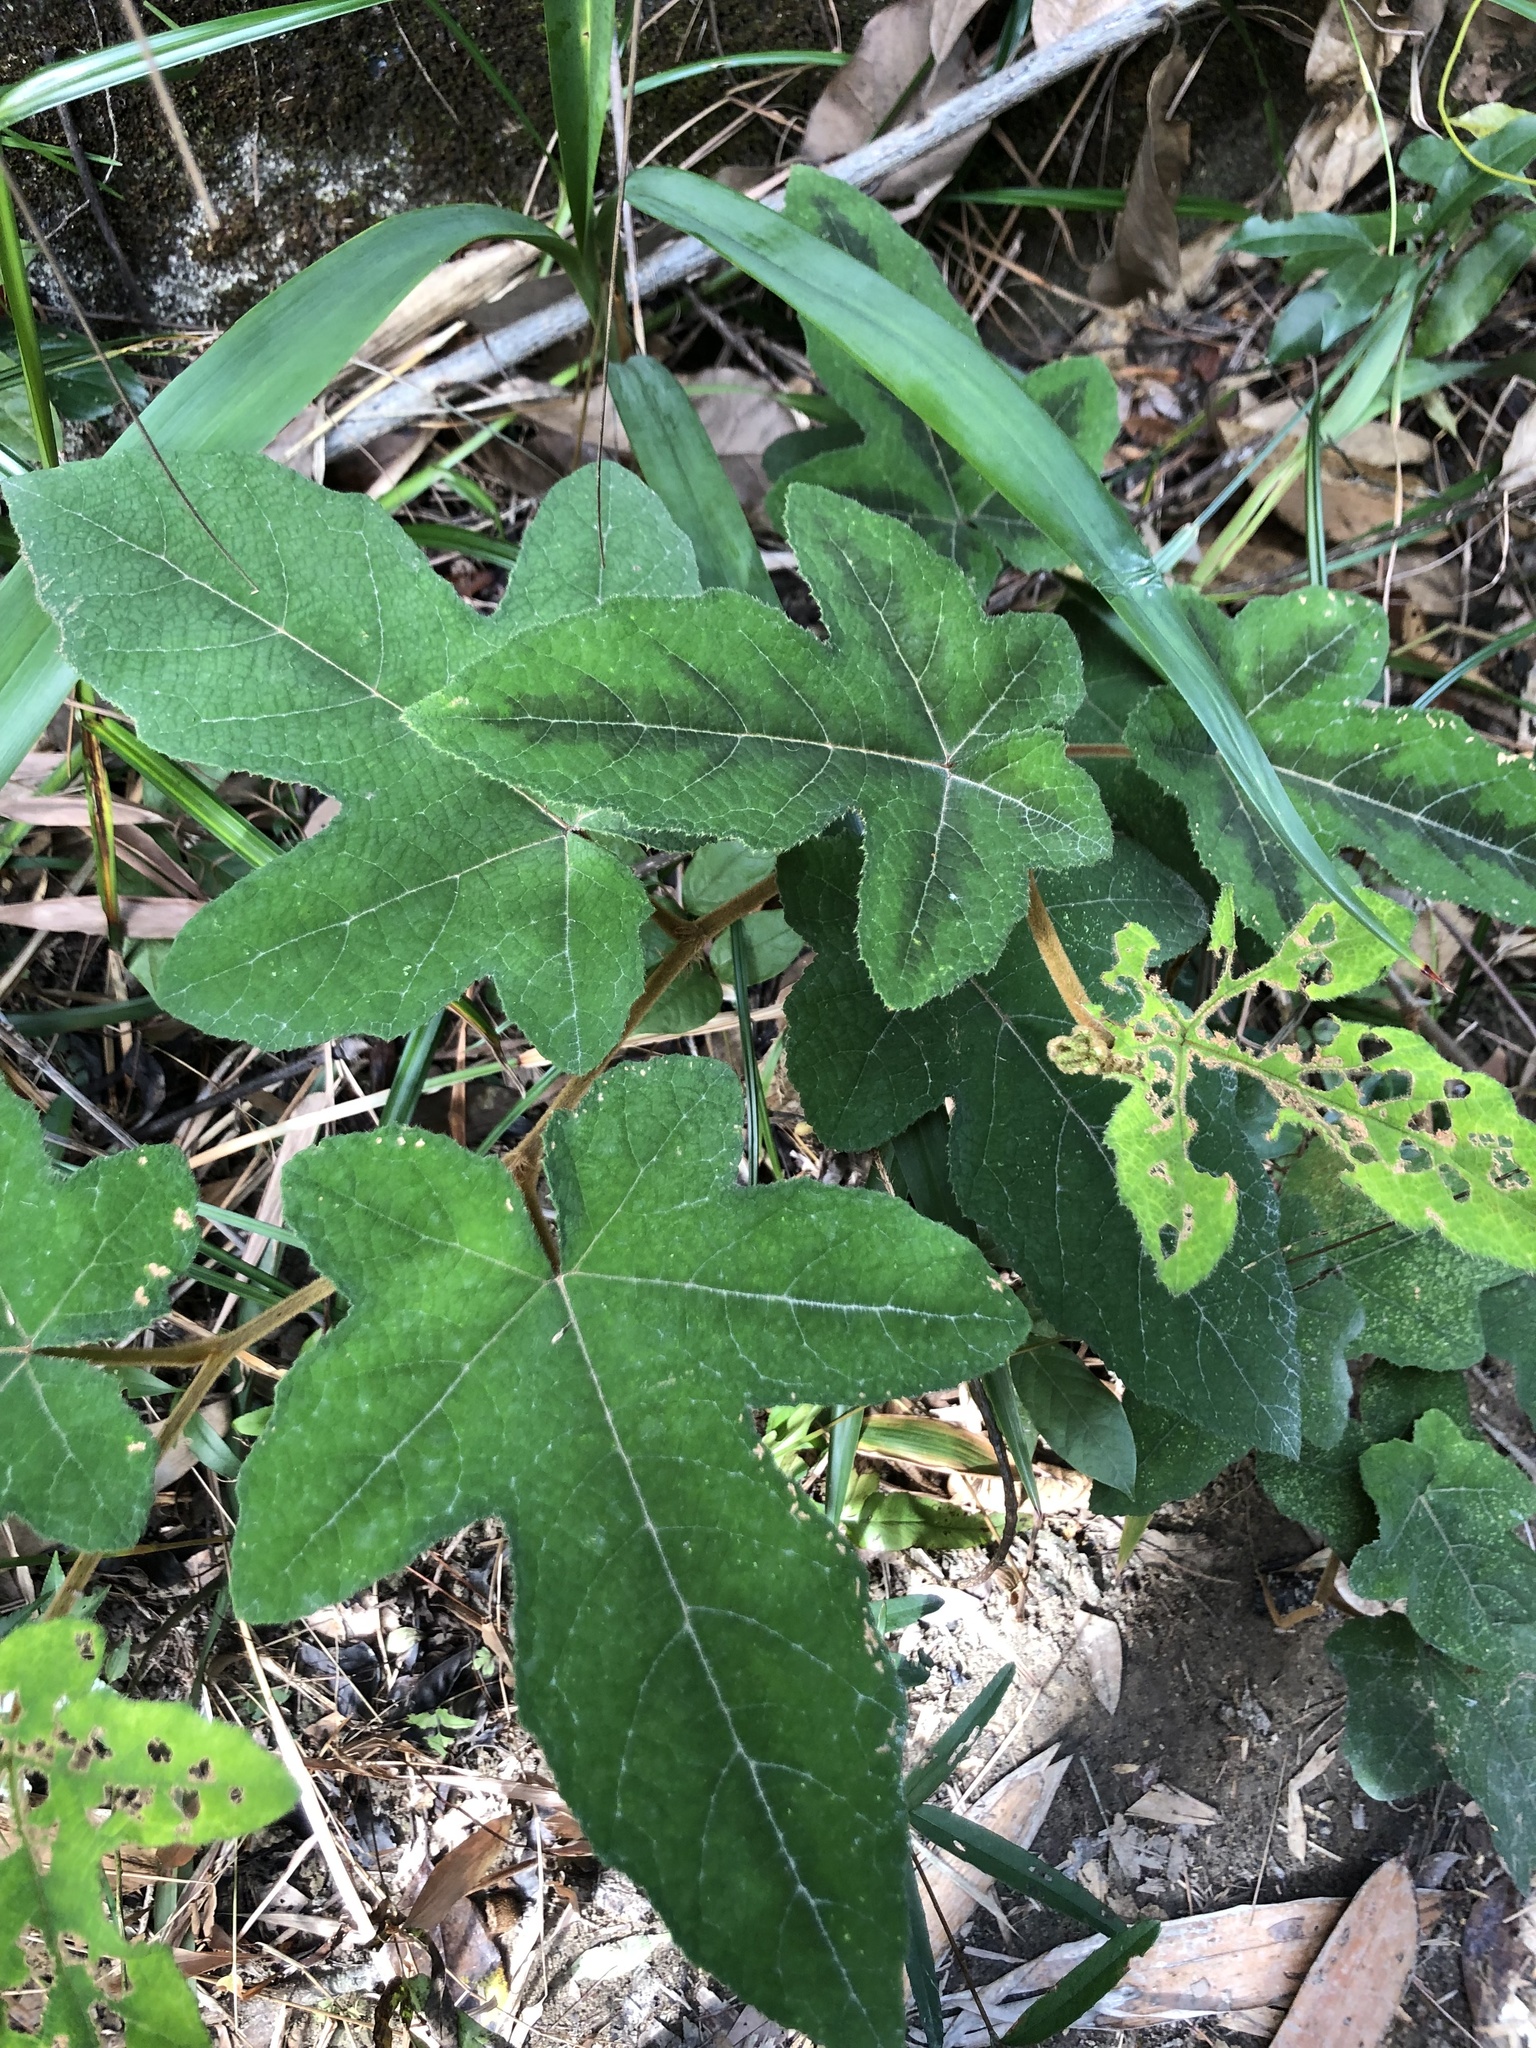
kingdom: Plantae
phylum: Tracheophyta
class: Magnoliopsida
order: Rosales
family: Rosaceae
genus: Rubus
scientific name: Rubus reflexus
